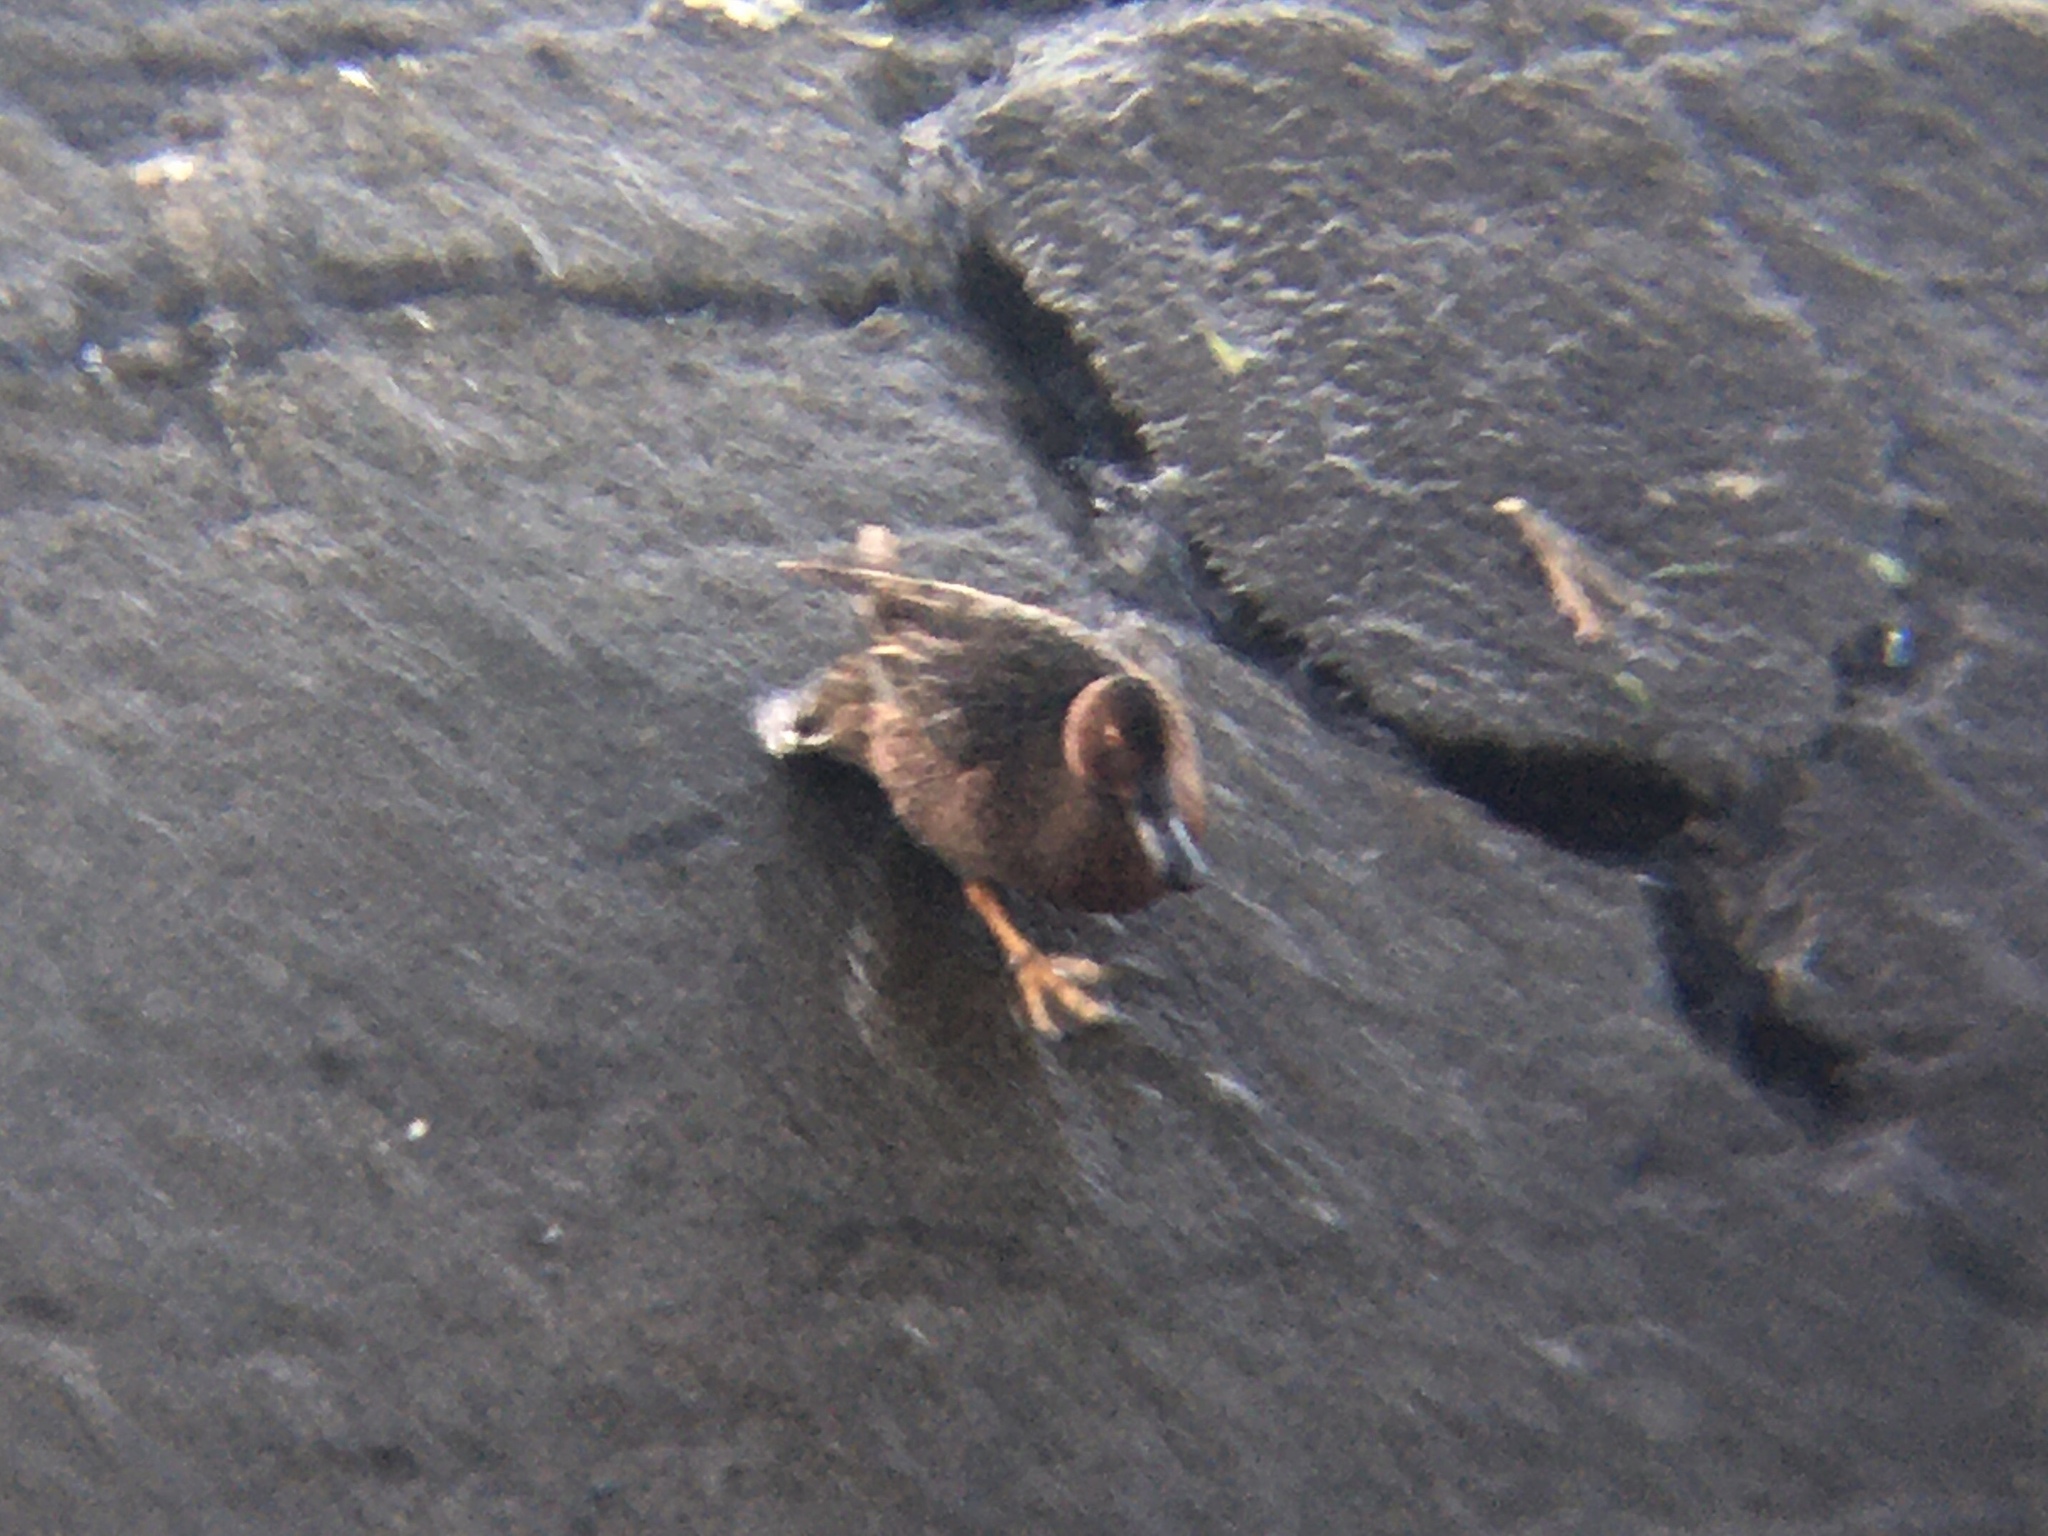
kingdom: Animalia
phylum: Chordata
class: Aves
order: Anseriformes
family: Anatidae
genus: Spatula
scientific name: Spatula cyanoptera
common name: Cinnamon teal
